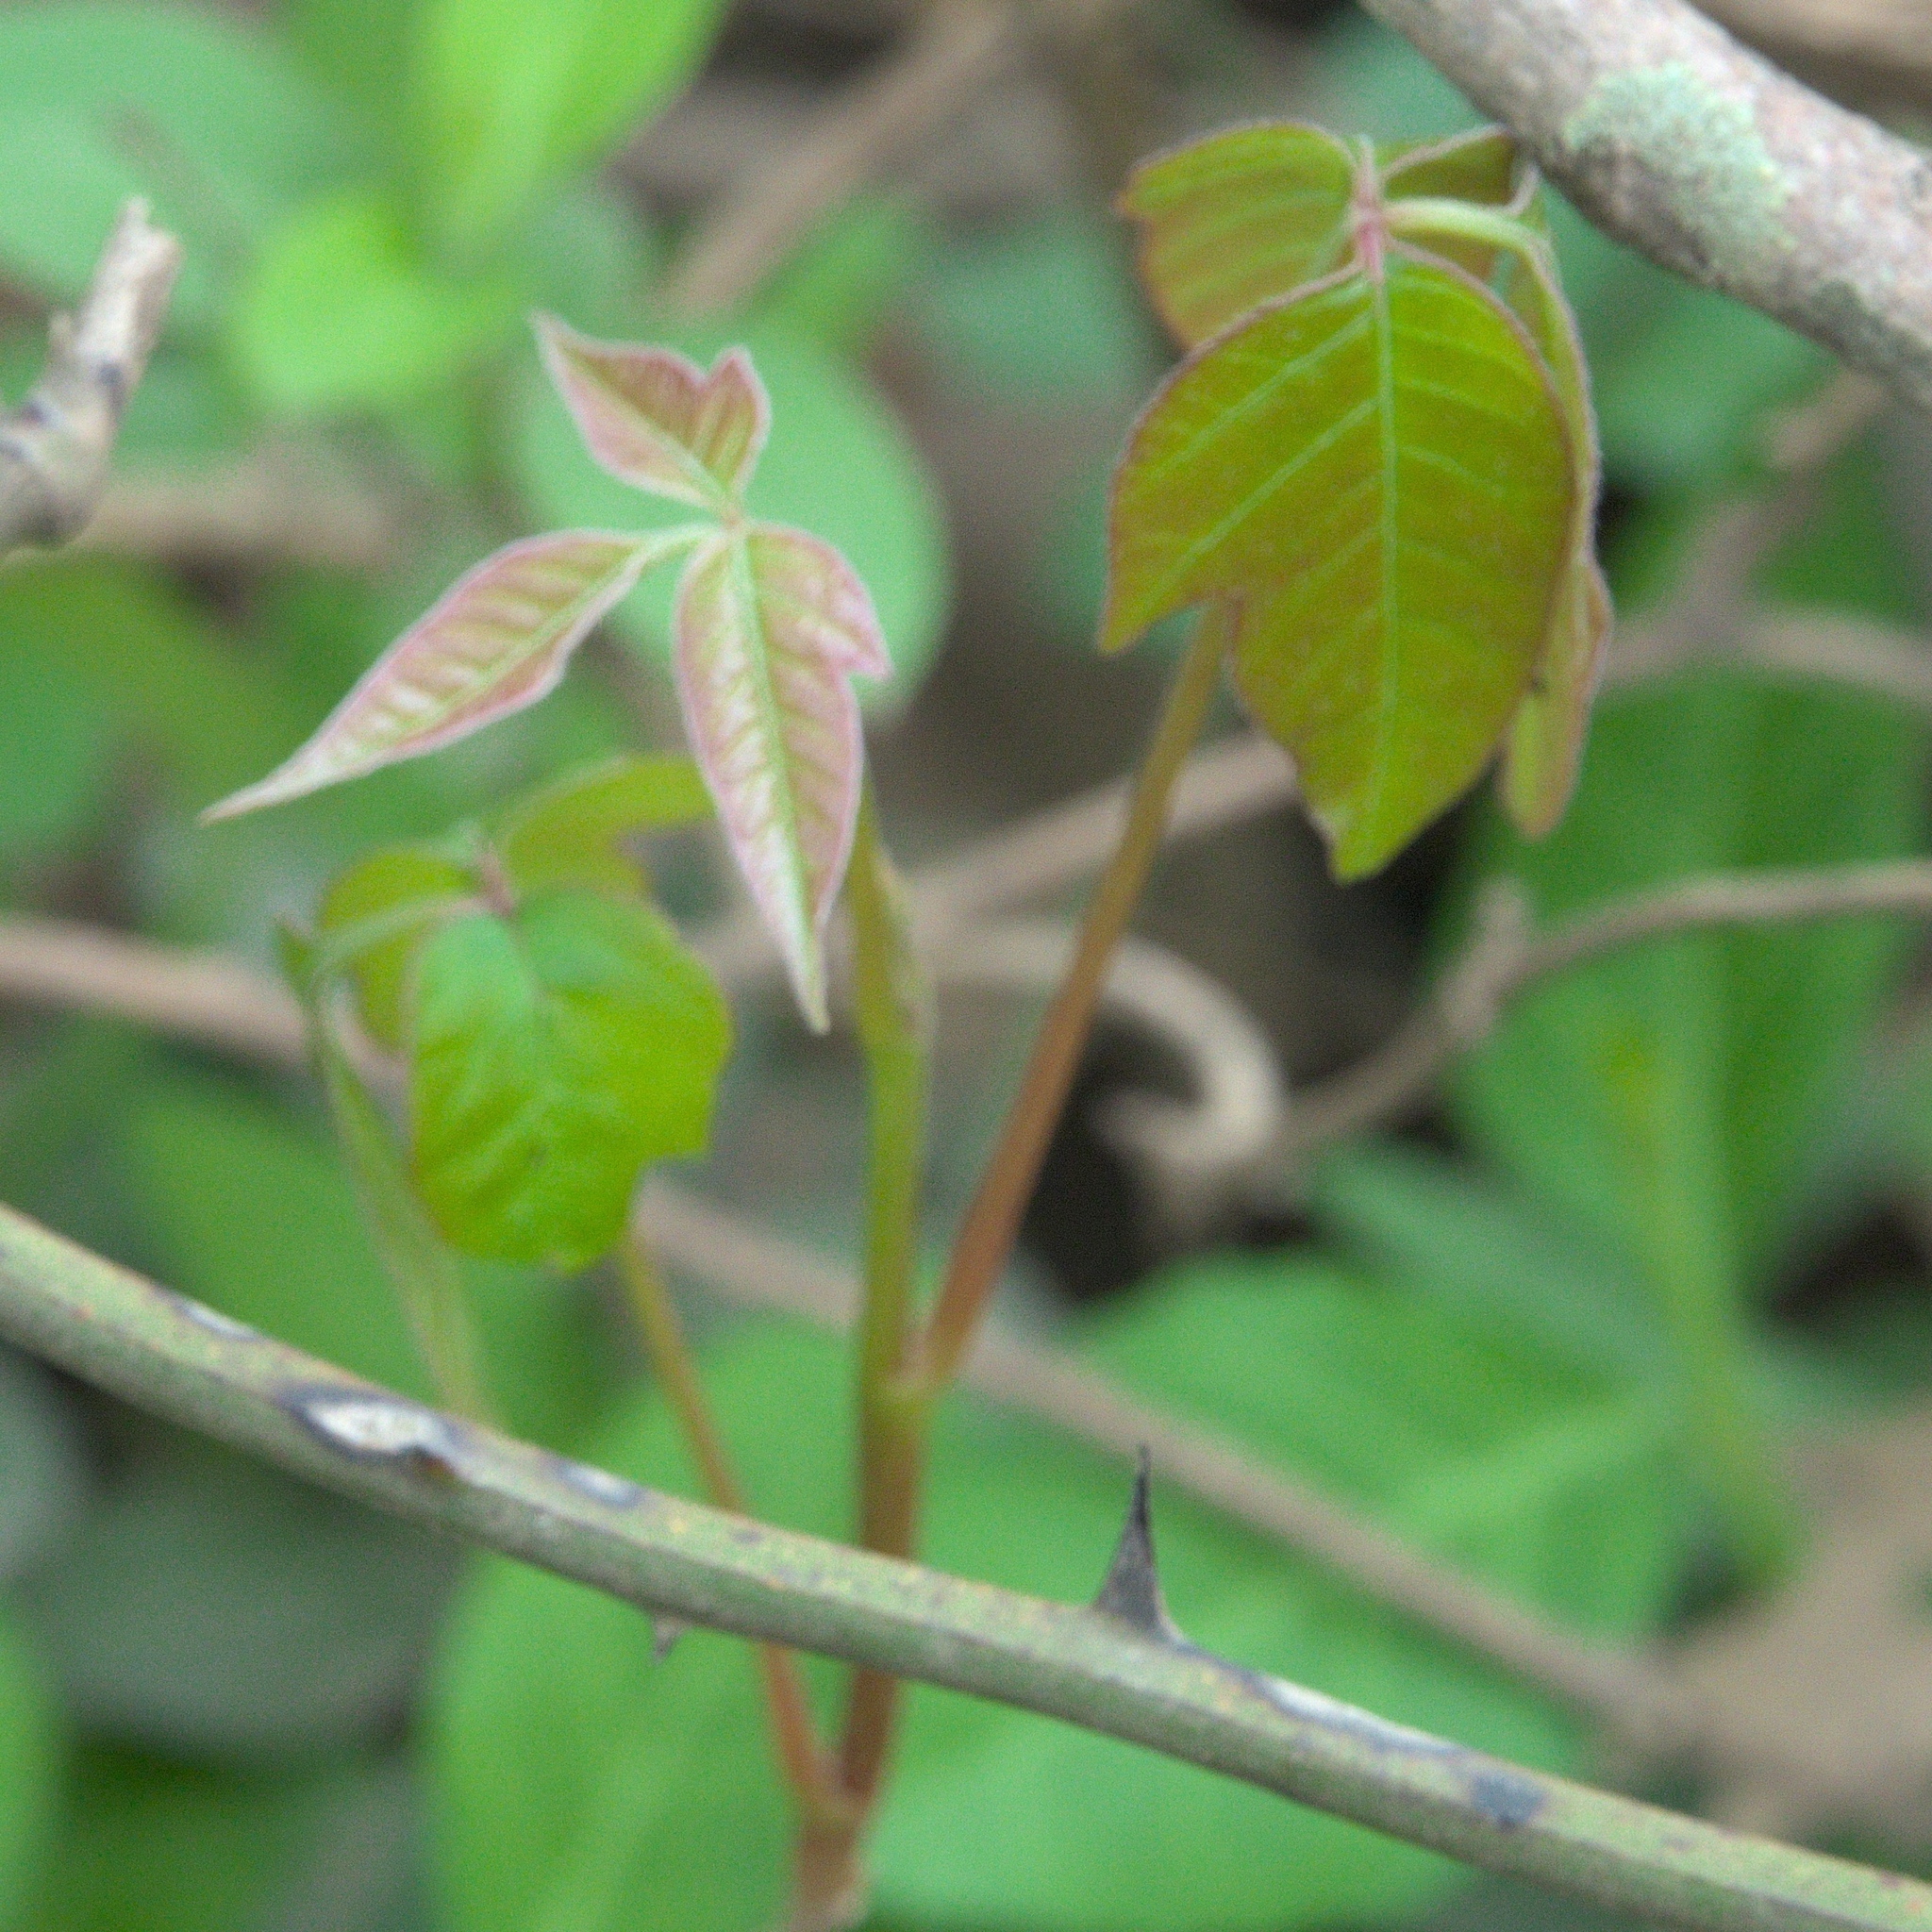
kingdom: Plantae
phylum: Tracheophyta
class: Magnoliopsida
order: Sapindales
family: Anacardiaceae
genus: Toxicodendron
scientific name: Toxicodendron radicans
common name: Poison ivy
